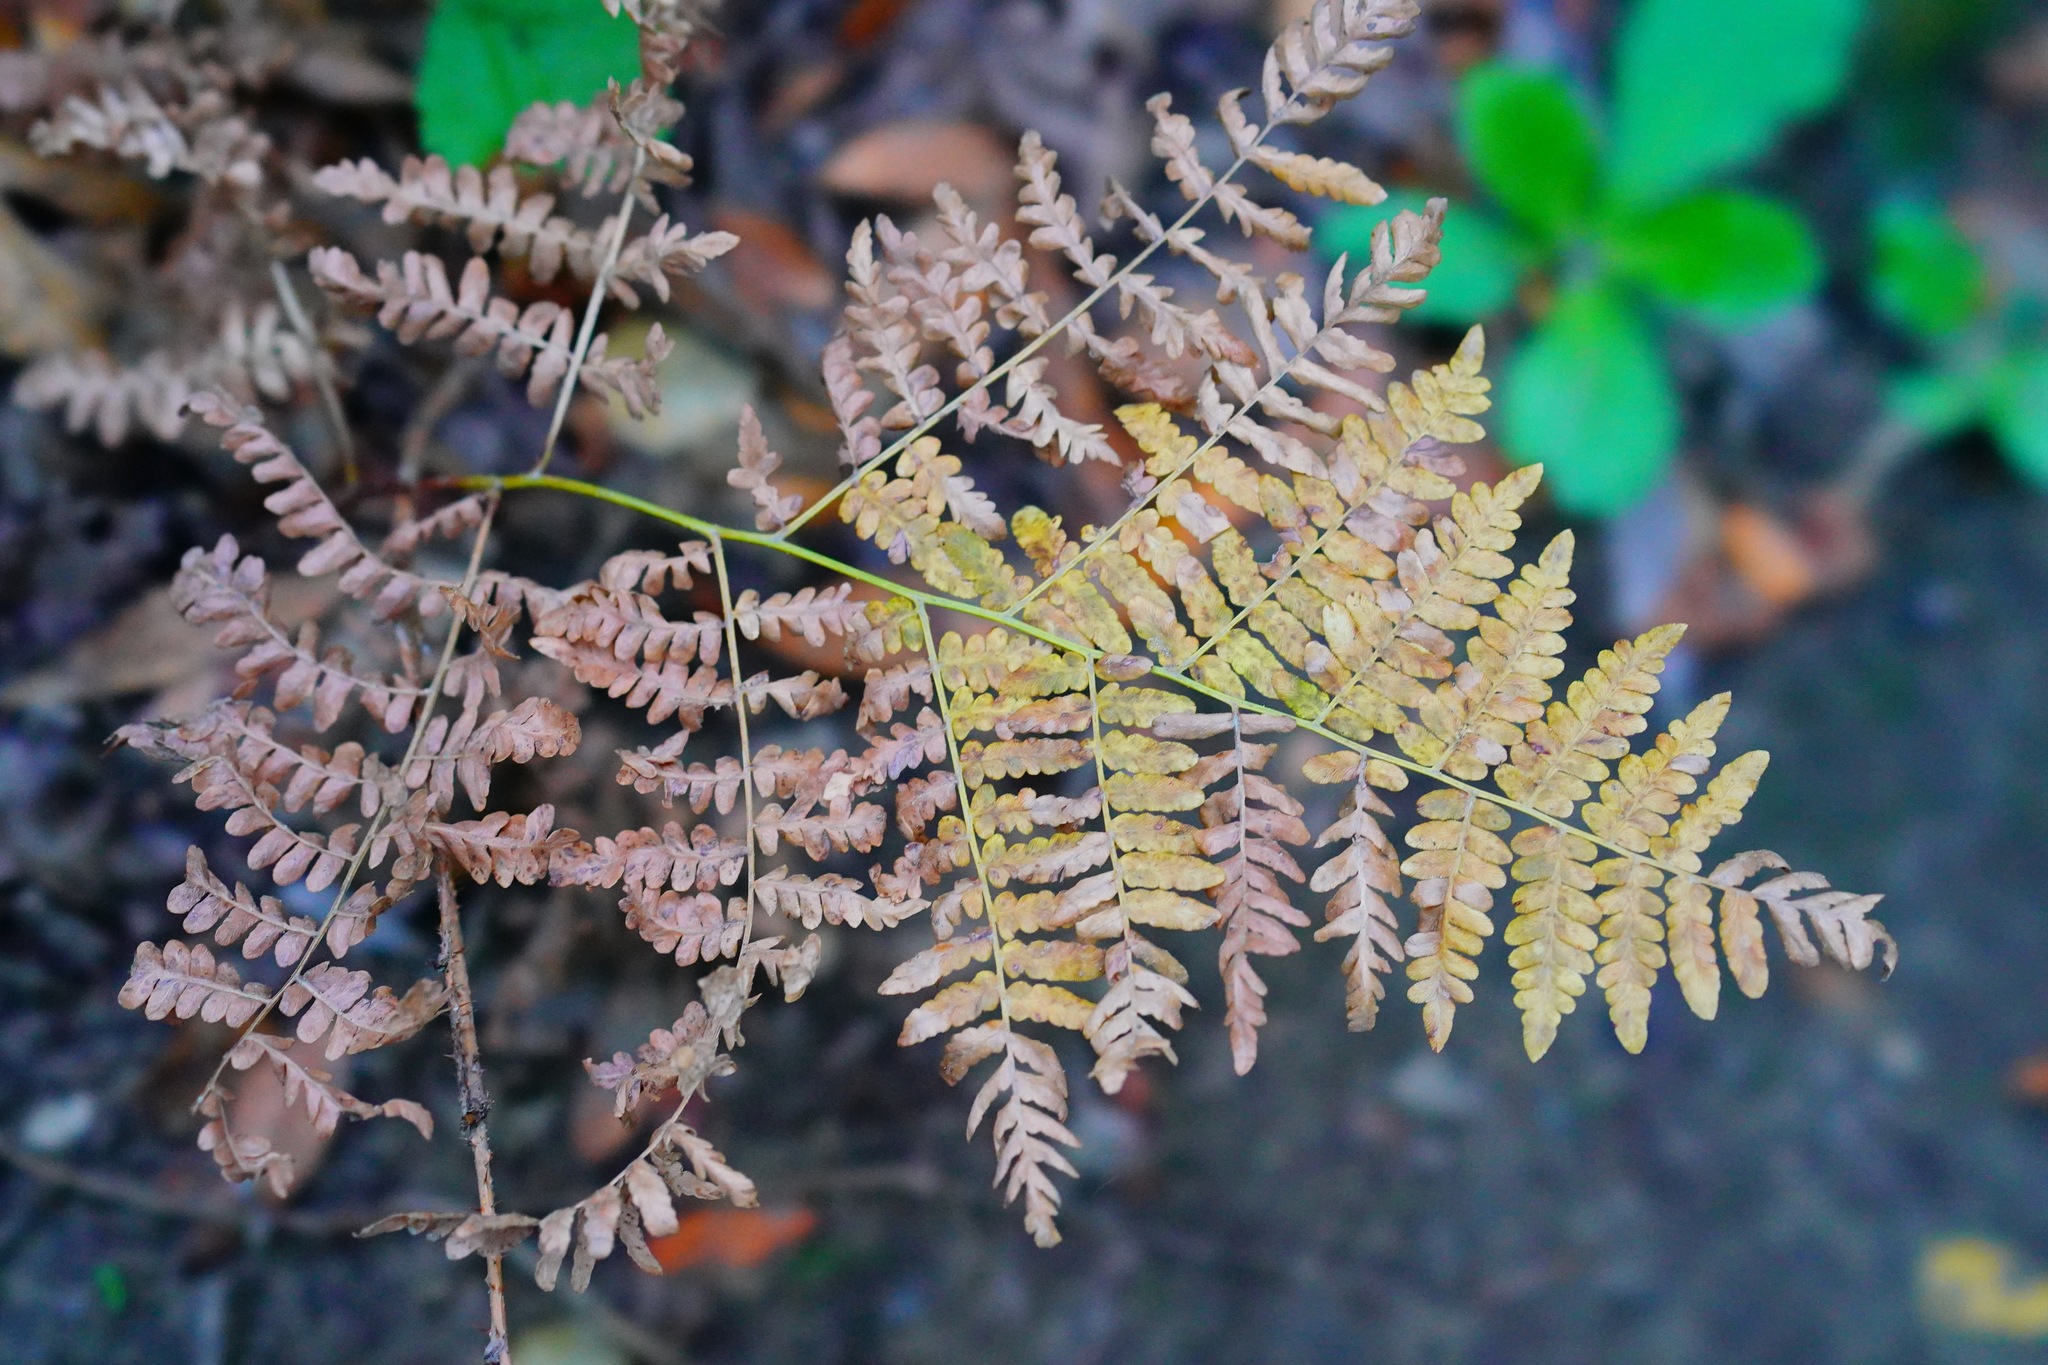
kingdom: Plantae
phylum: Tracheophyta
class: Polypodiopsida
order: Polypodiales
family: Dennstaedtiaceae
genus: Pteridium
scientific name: Pteridium aquilinum
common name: Bracken
